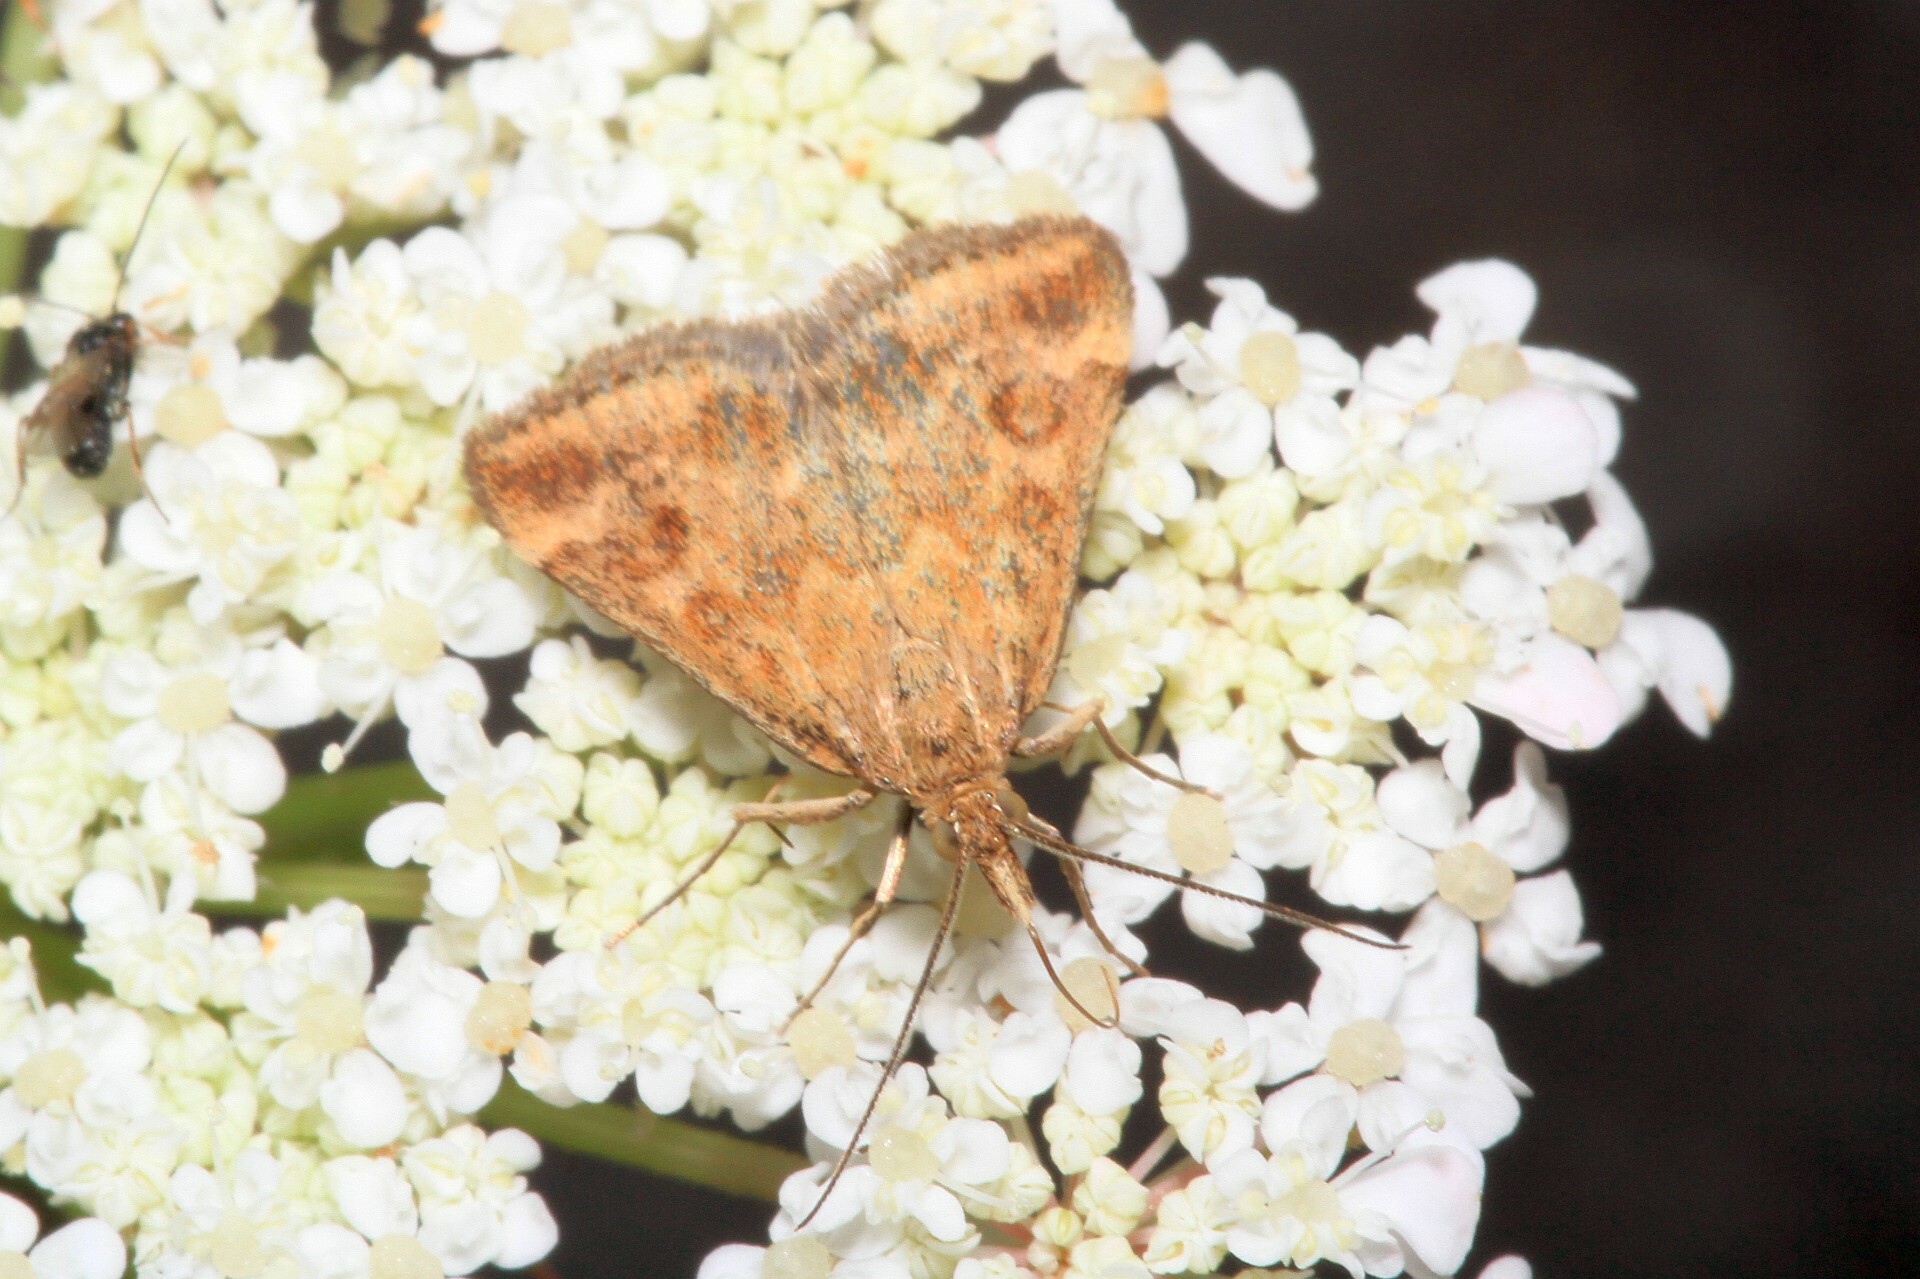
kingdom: Animalia
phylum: Arthropoda
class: Insecta
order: Lepidoptera
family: Crambidae
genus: Pyrausta
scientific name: Pyrausta despicata
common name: Straw-barred pearl
